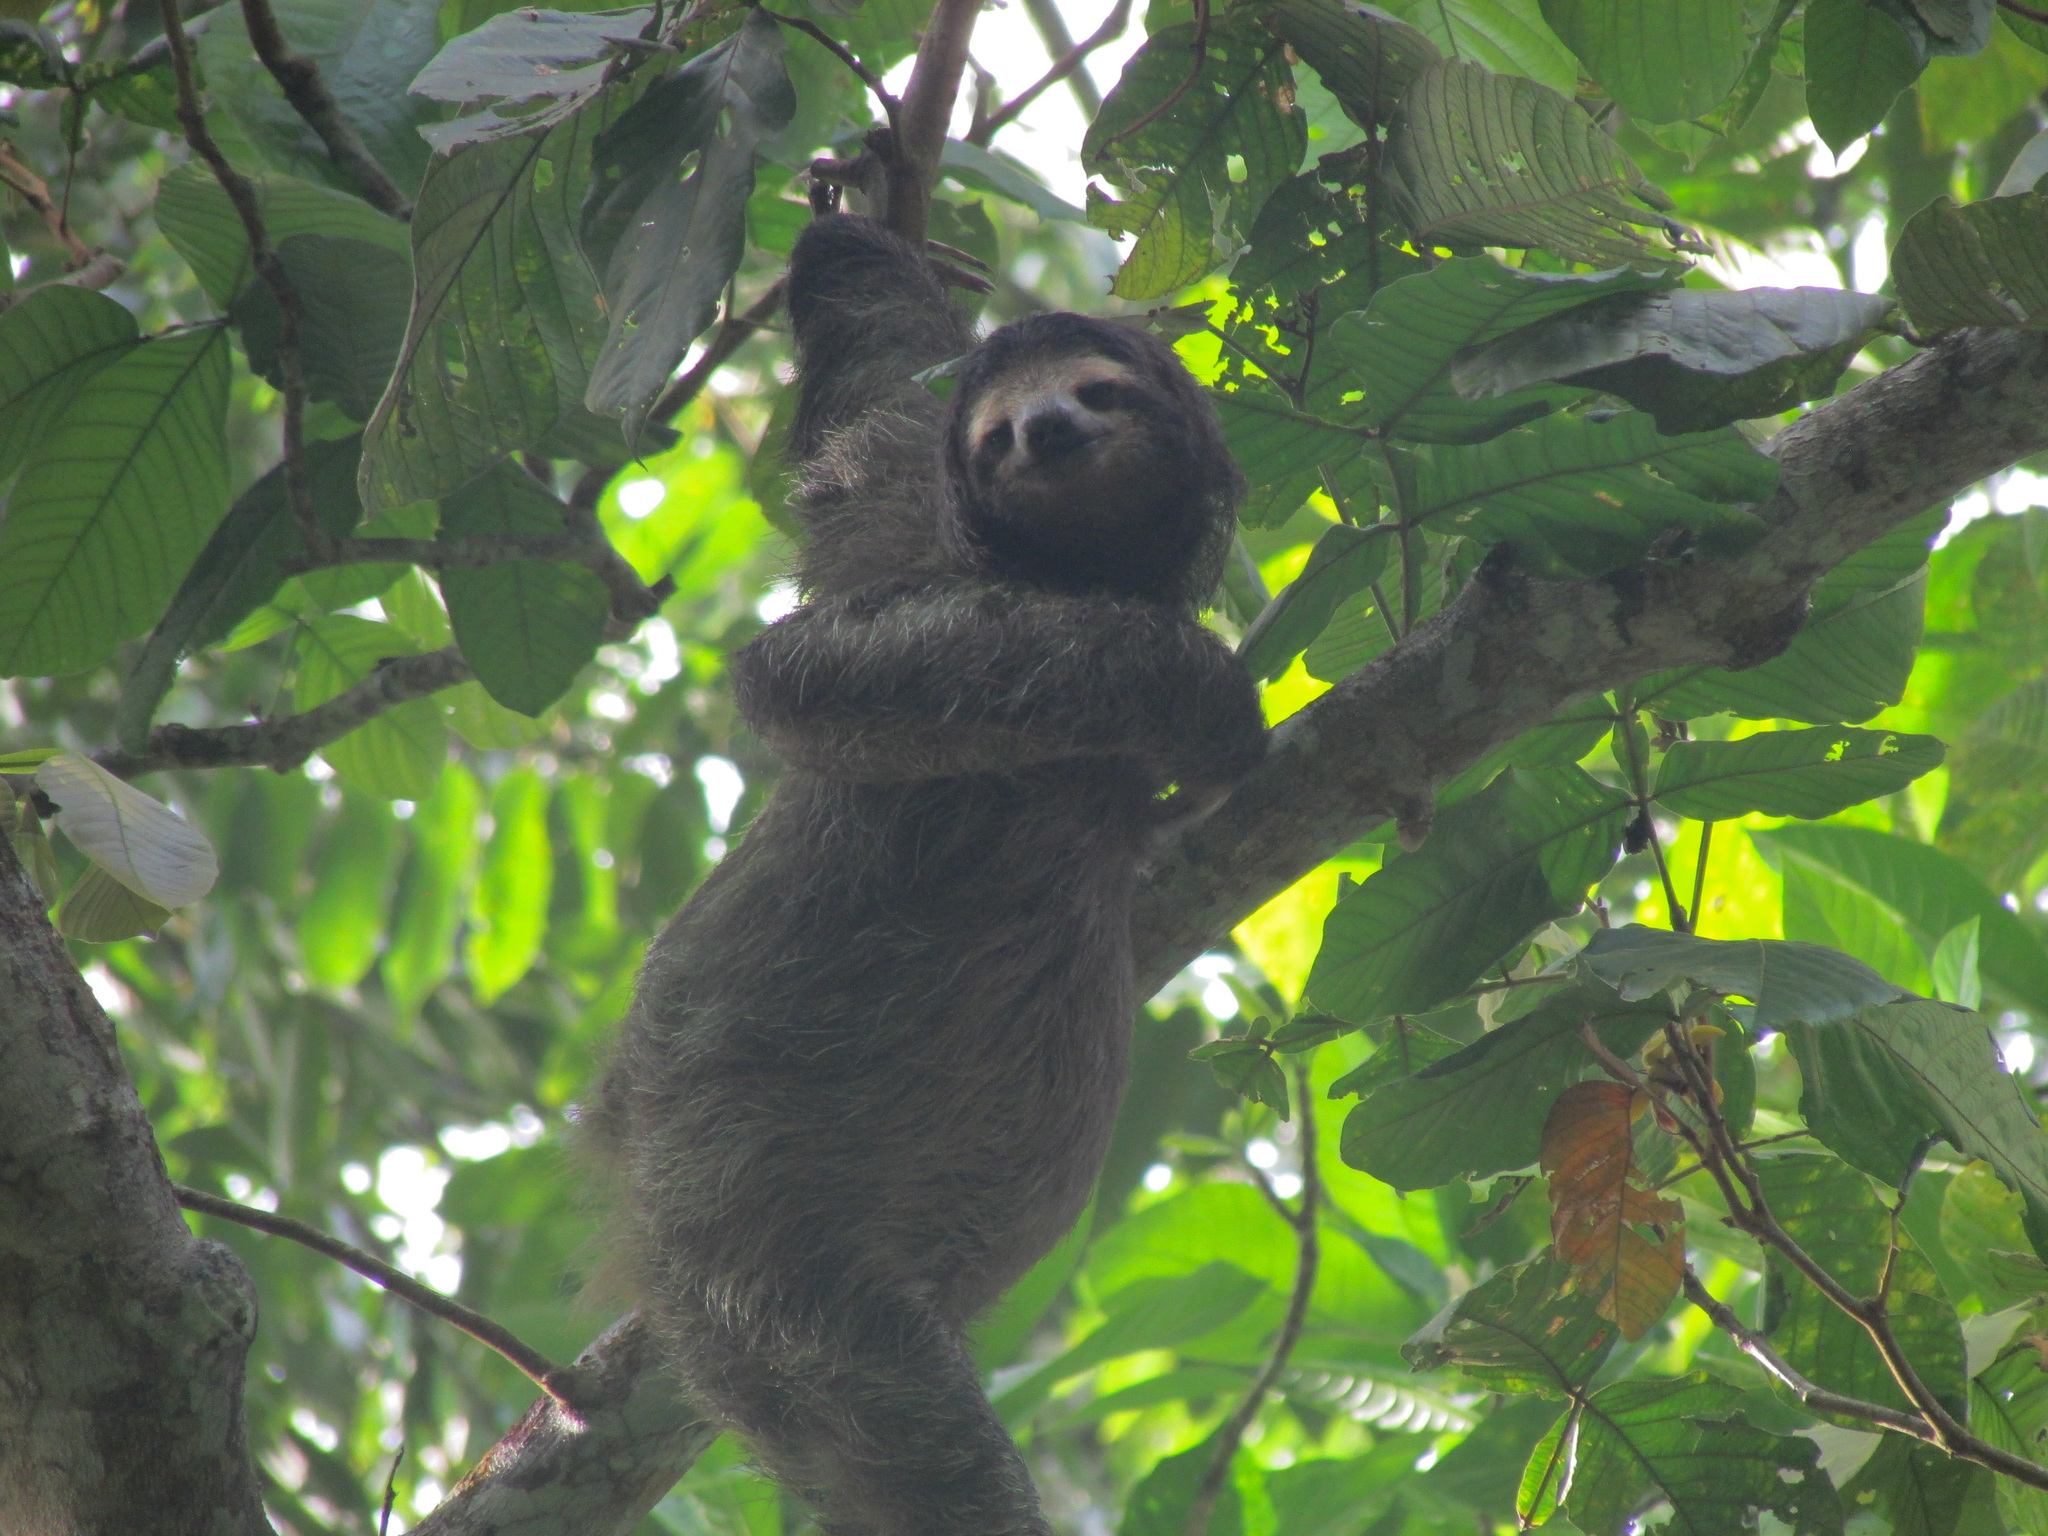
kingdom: Animalia
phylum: Chordata
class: Mammalia
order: Pilosa
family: Bradypodidae
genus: Bradypus
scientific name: Bradypus variegatus
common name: Brown-throated three-toed sloth
